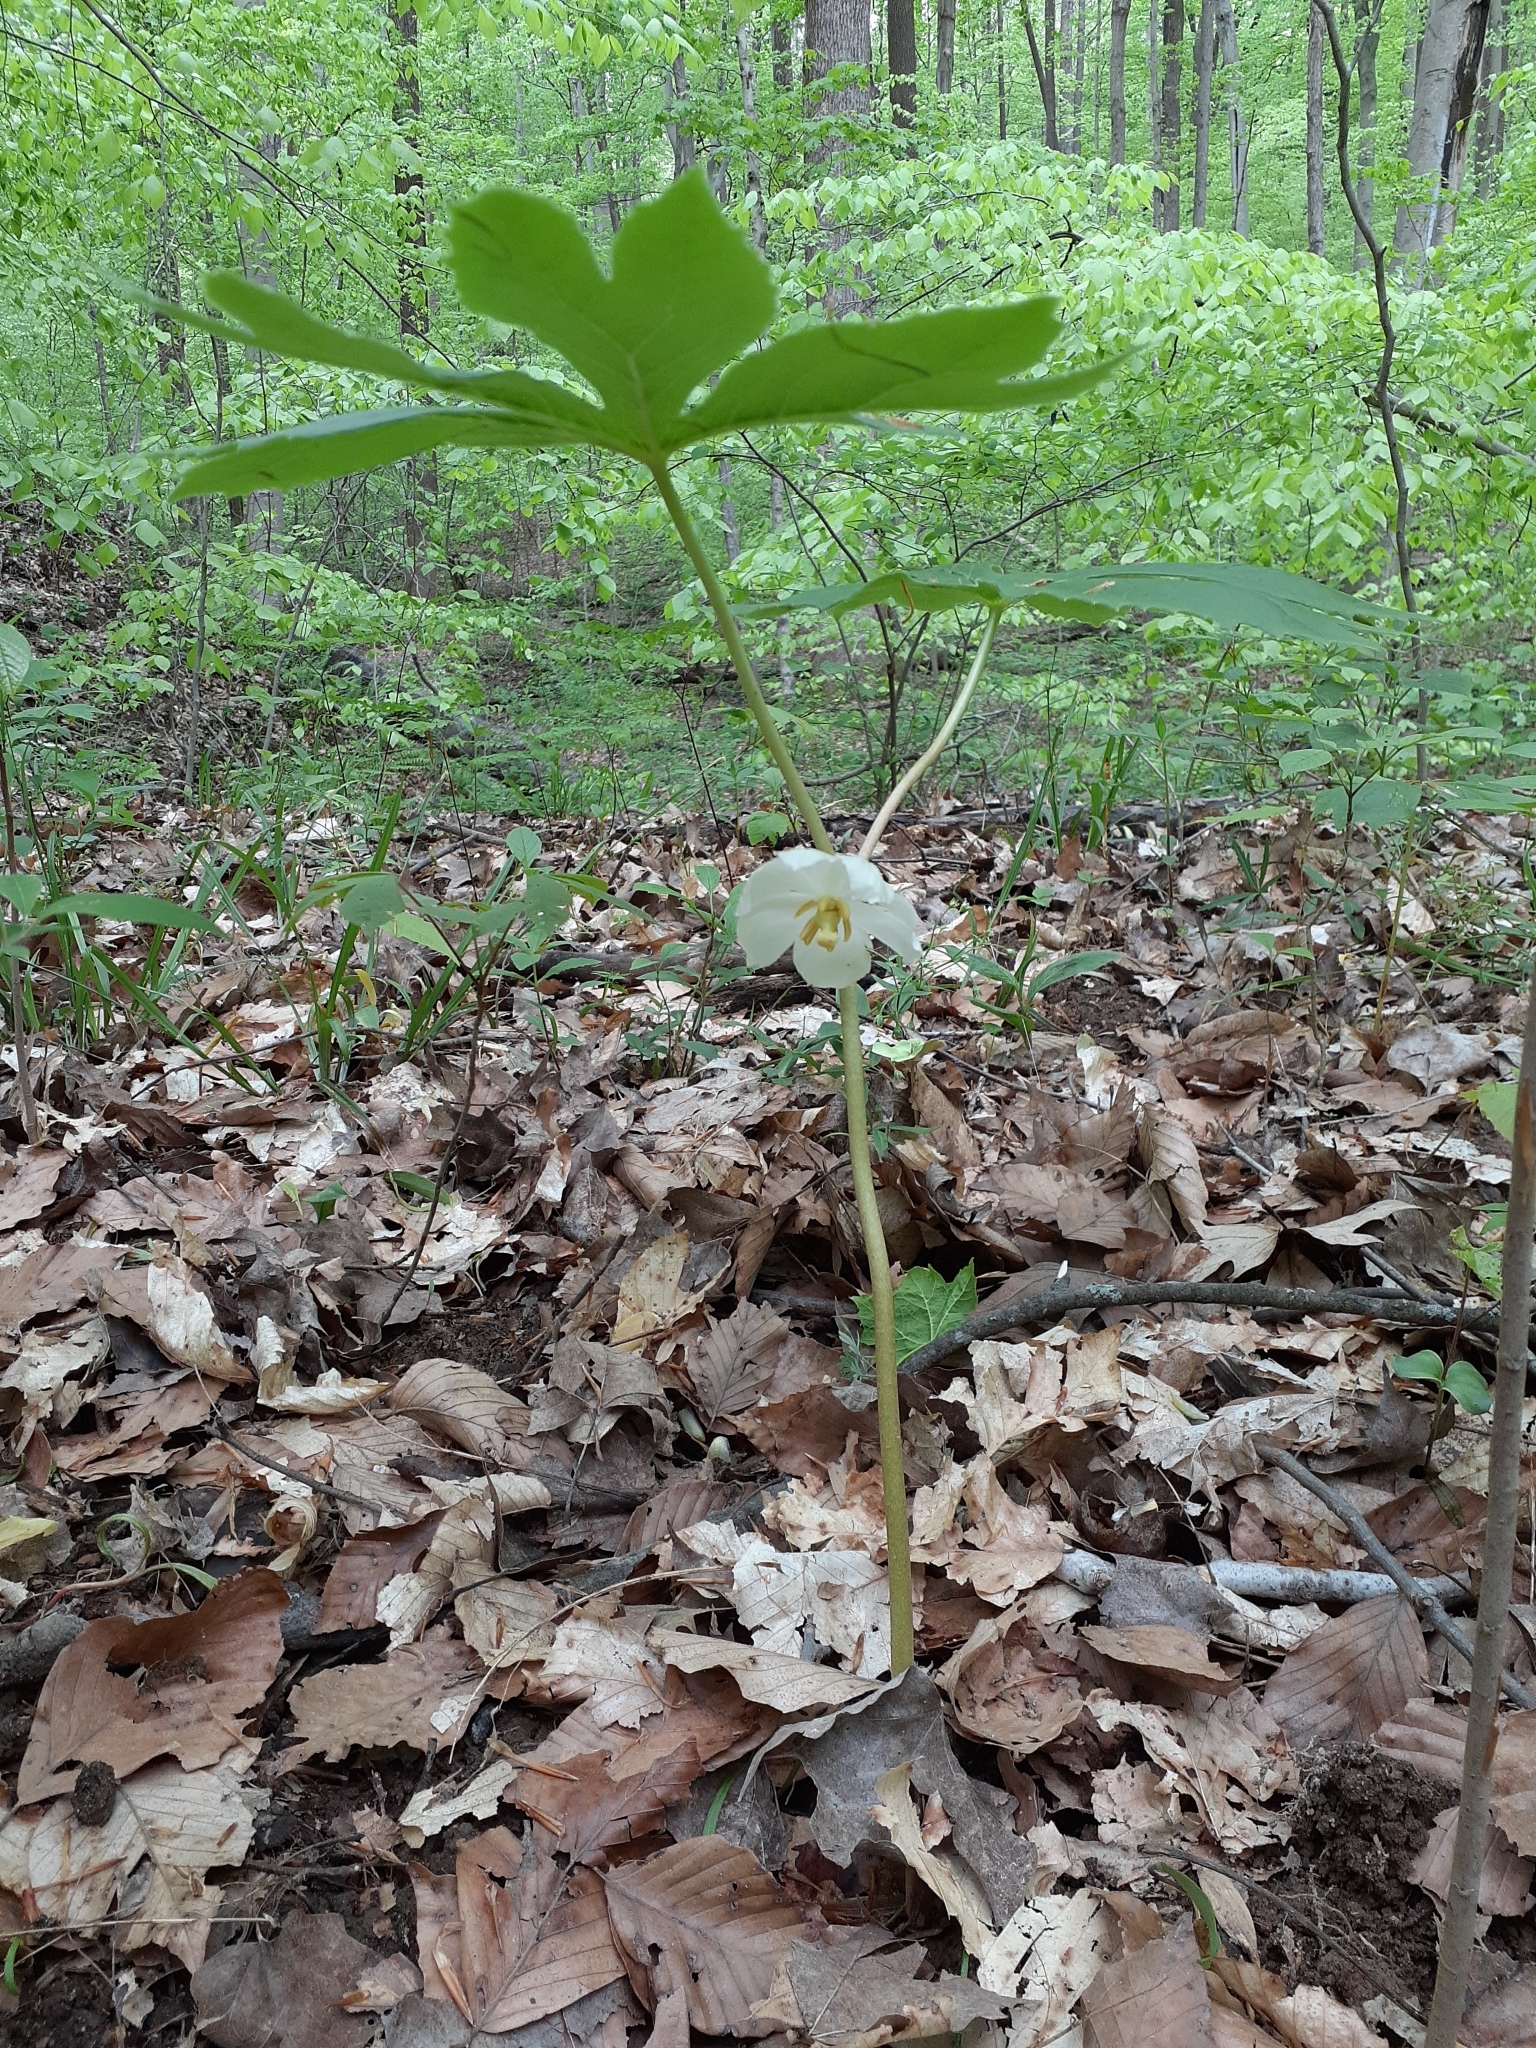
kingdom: Plantae
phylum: Tracheophyta
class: Magnoliopsida
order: Ranunculales
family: Berberidaceae
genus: Podophyllum
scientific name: Podophyllum peltatum
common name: Wild mandrake
